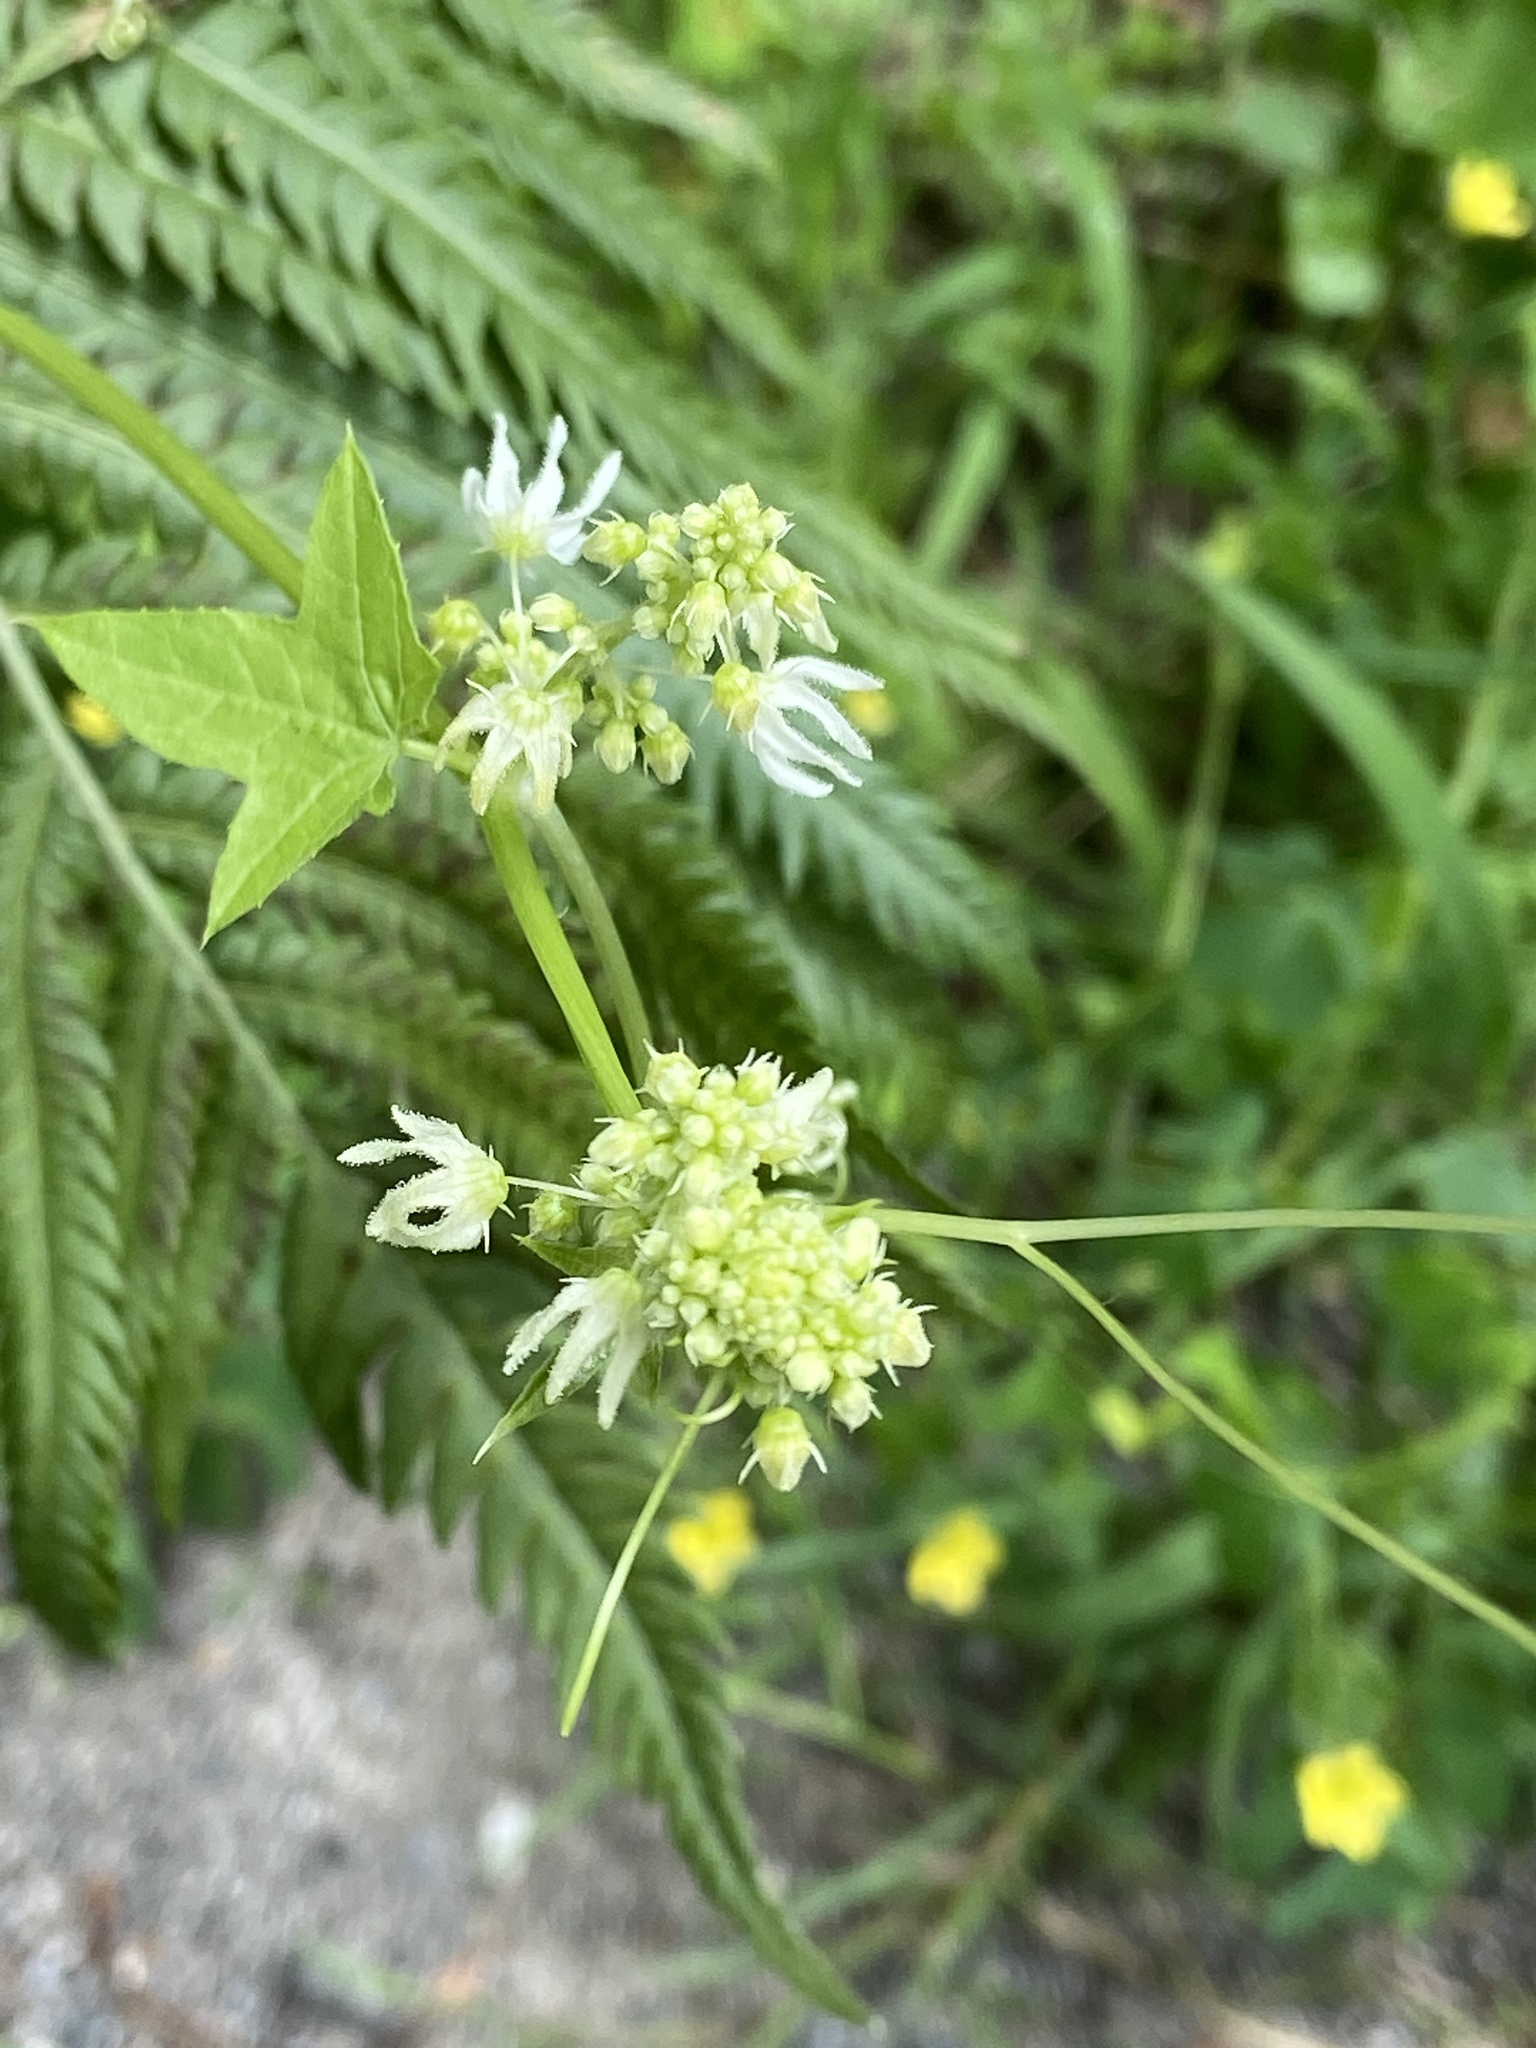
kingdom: Plantae
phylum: Tracheophyta
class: Magnoliopsida
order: Cucurbitales
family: Cucurbitaceae
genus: Echinocystis
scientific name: Echinocystis lobata
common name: Wild cucumber
